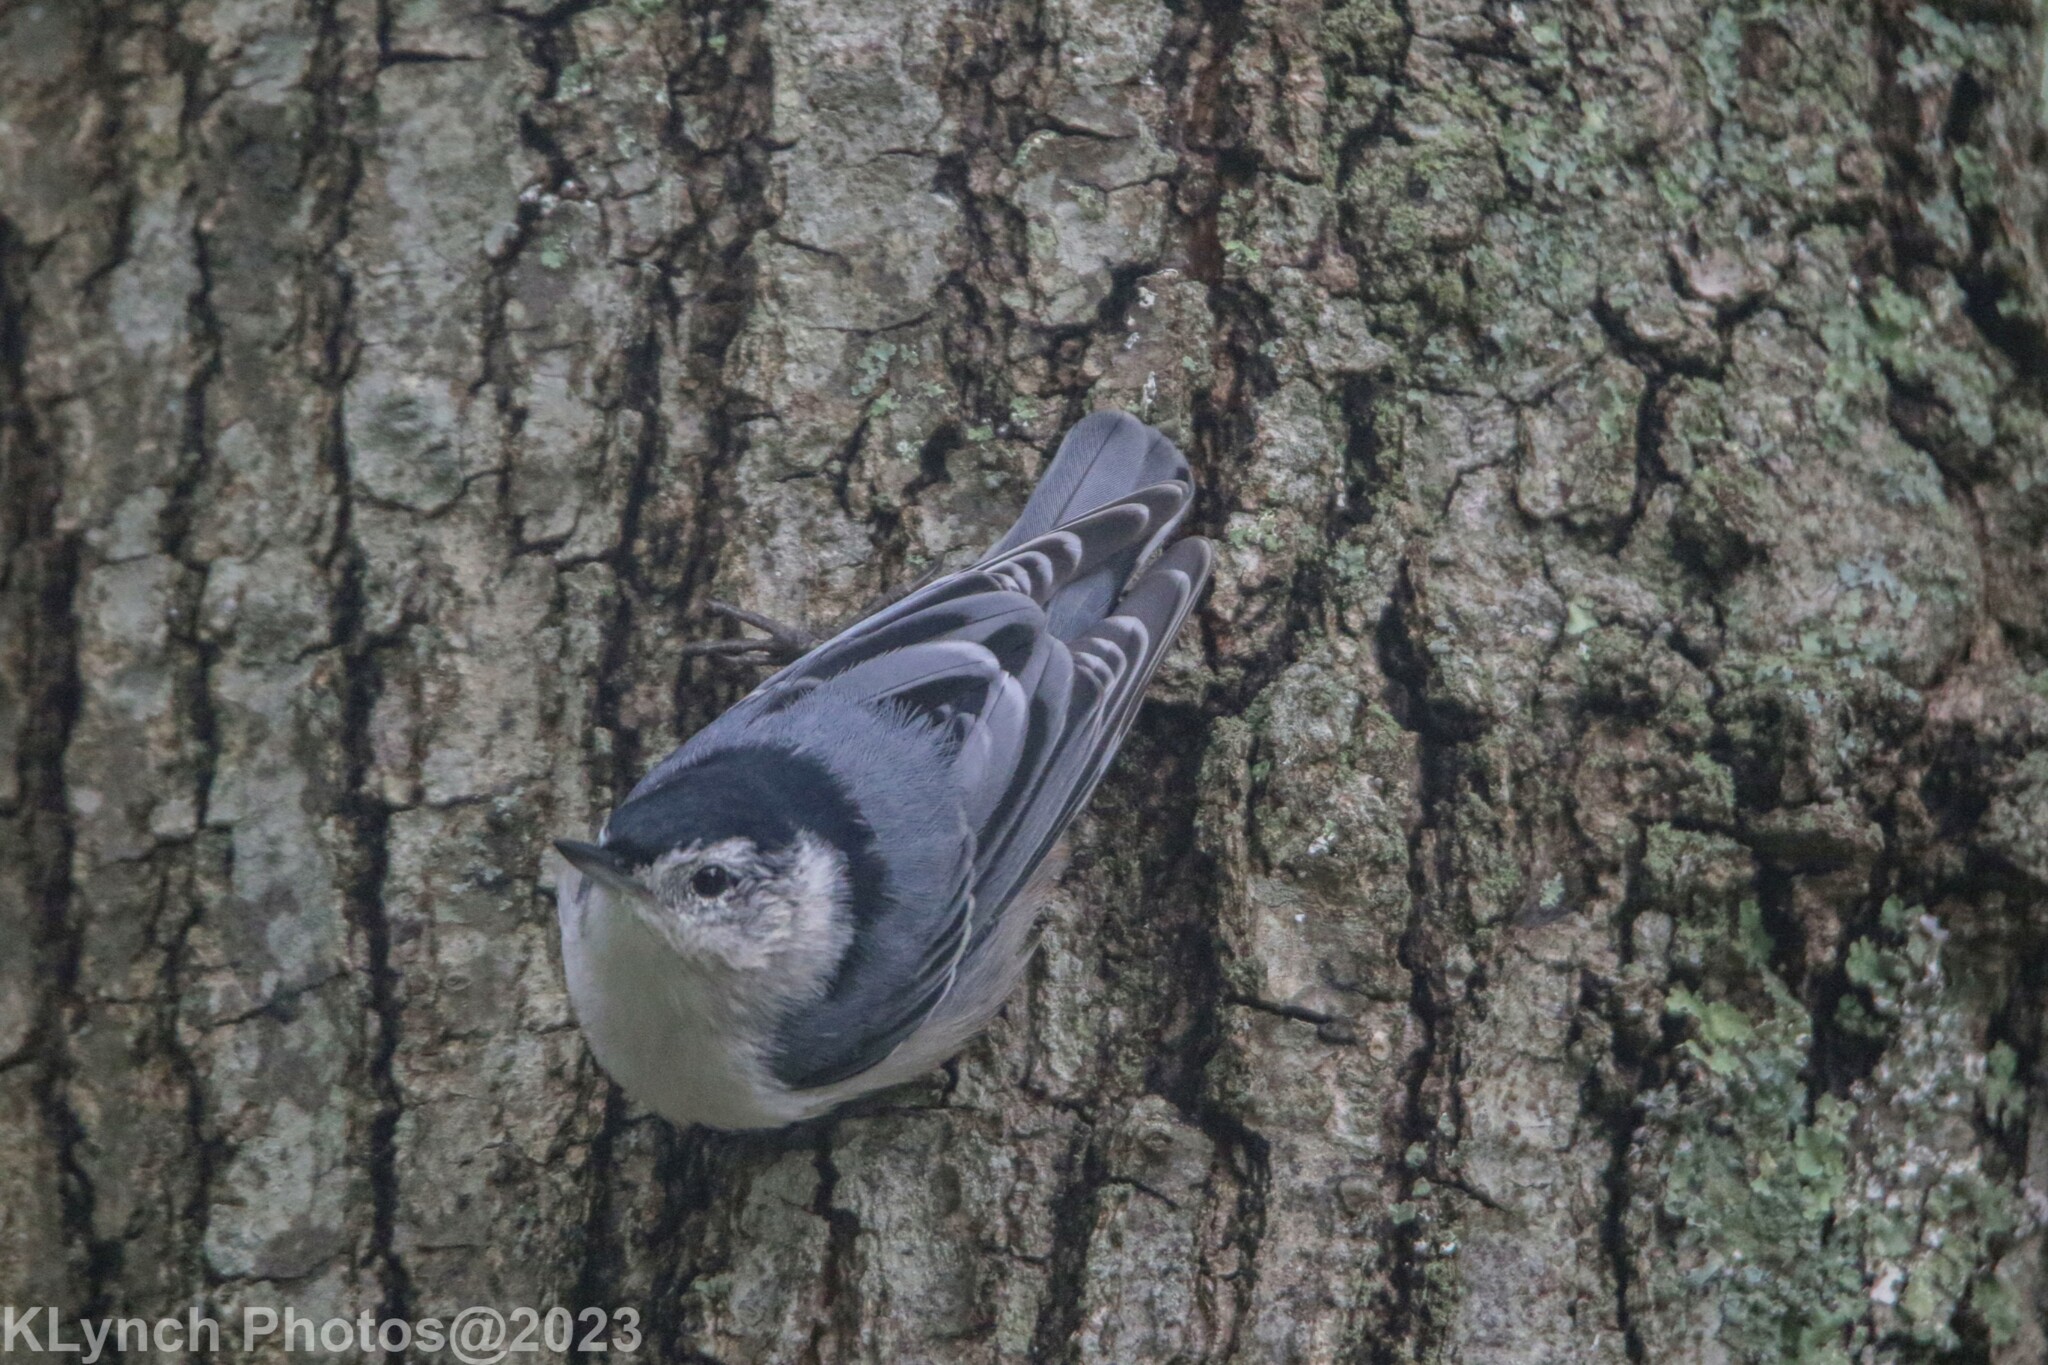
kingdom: Animalia
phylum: Chordata
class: Aves
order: Passeriformes
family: Sittidae
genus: Sitta
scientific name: Sitta carolinensis
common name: White-breasted nuthatch
